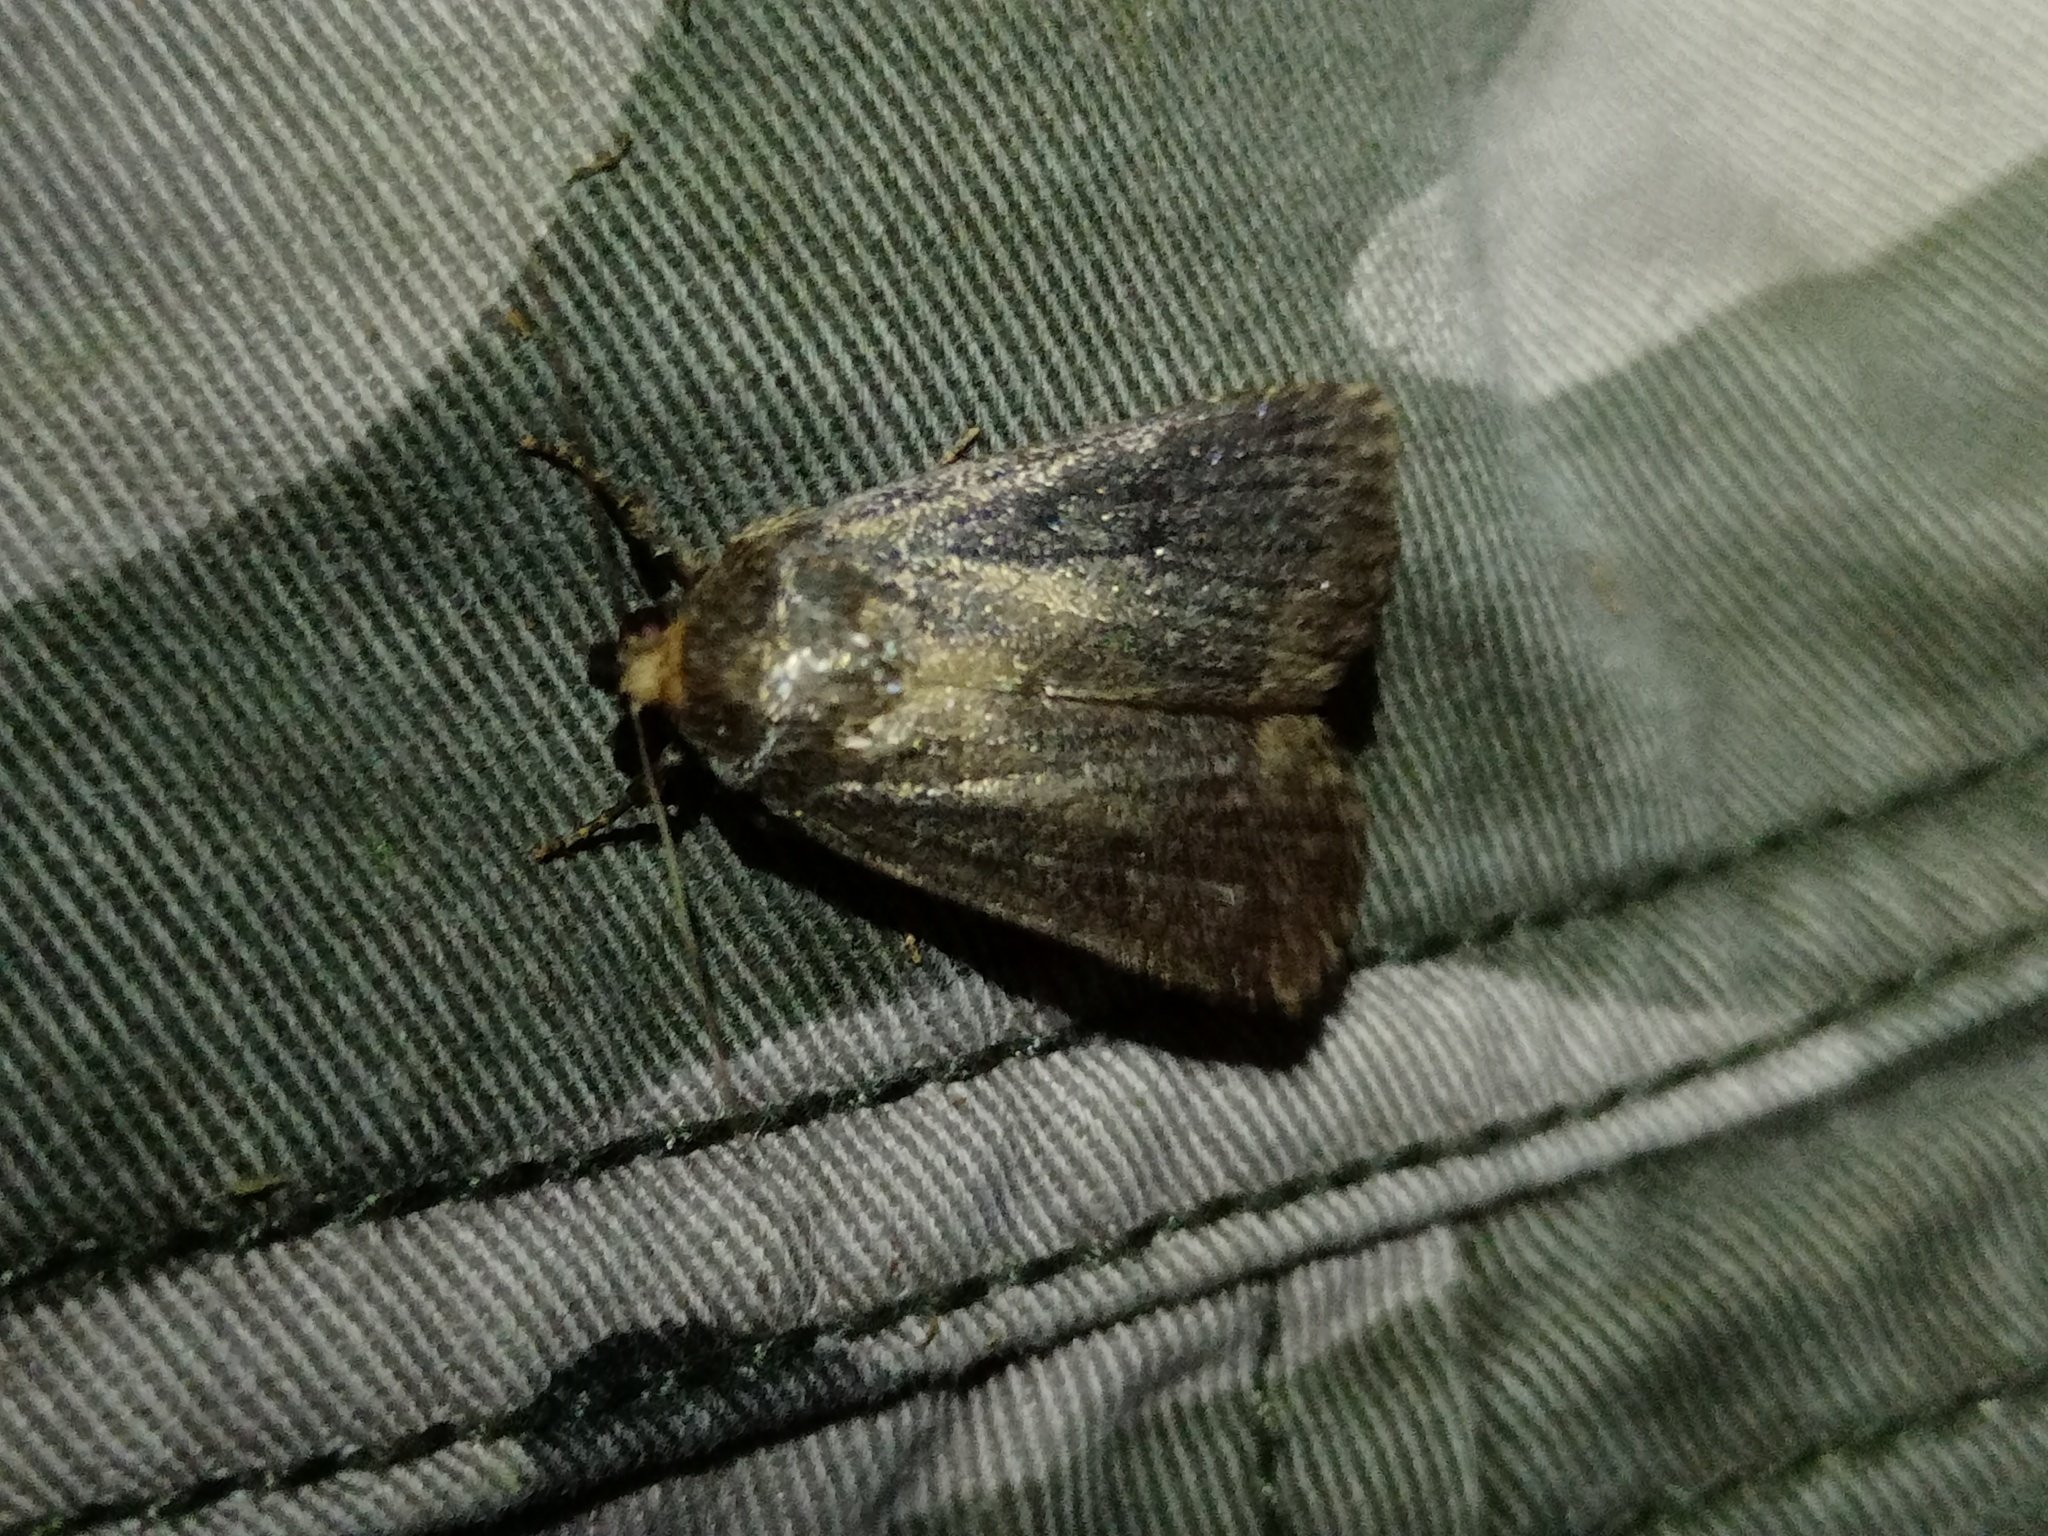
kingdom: Animalia
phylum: Arthropoda
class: Insecta
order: Lepidoptera
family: Noctuidae
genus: Amphipyra
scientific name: Amphipyra tragopoginis
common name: Mouse moth
